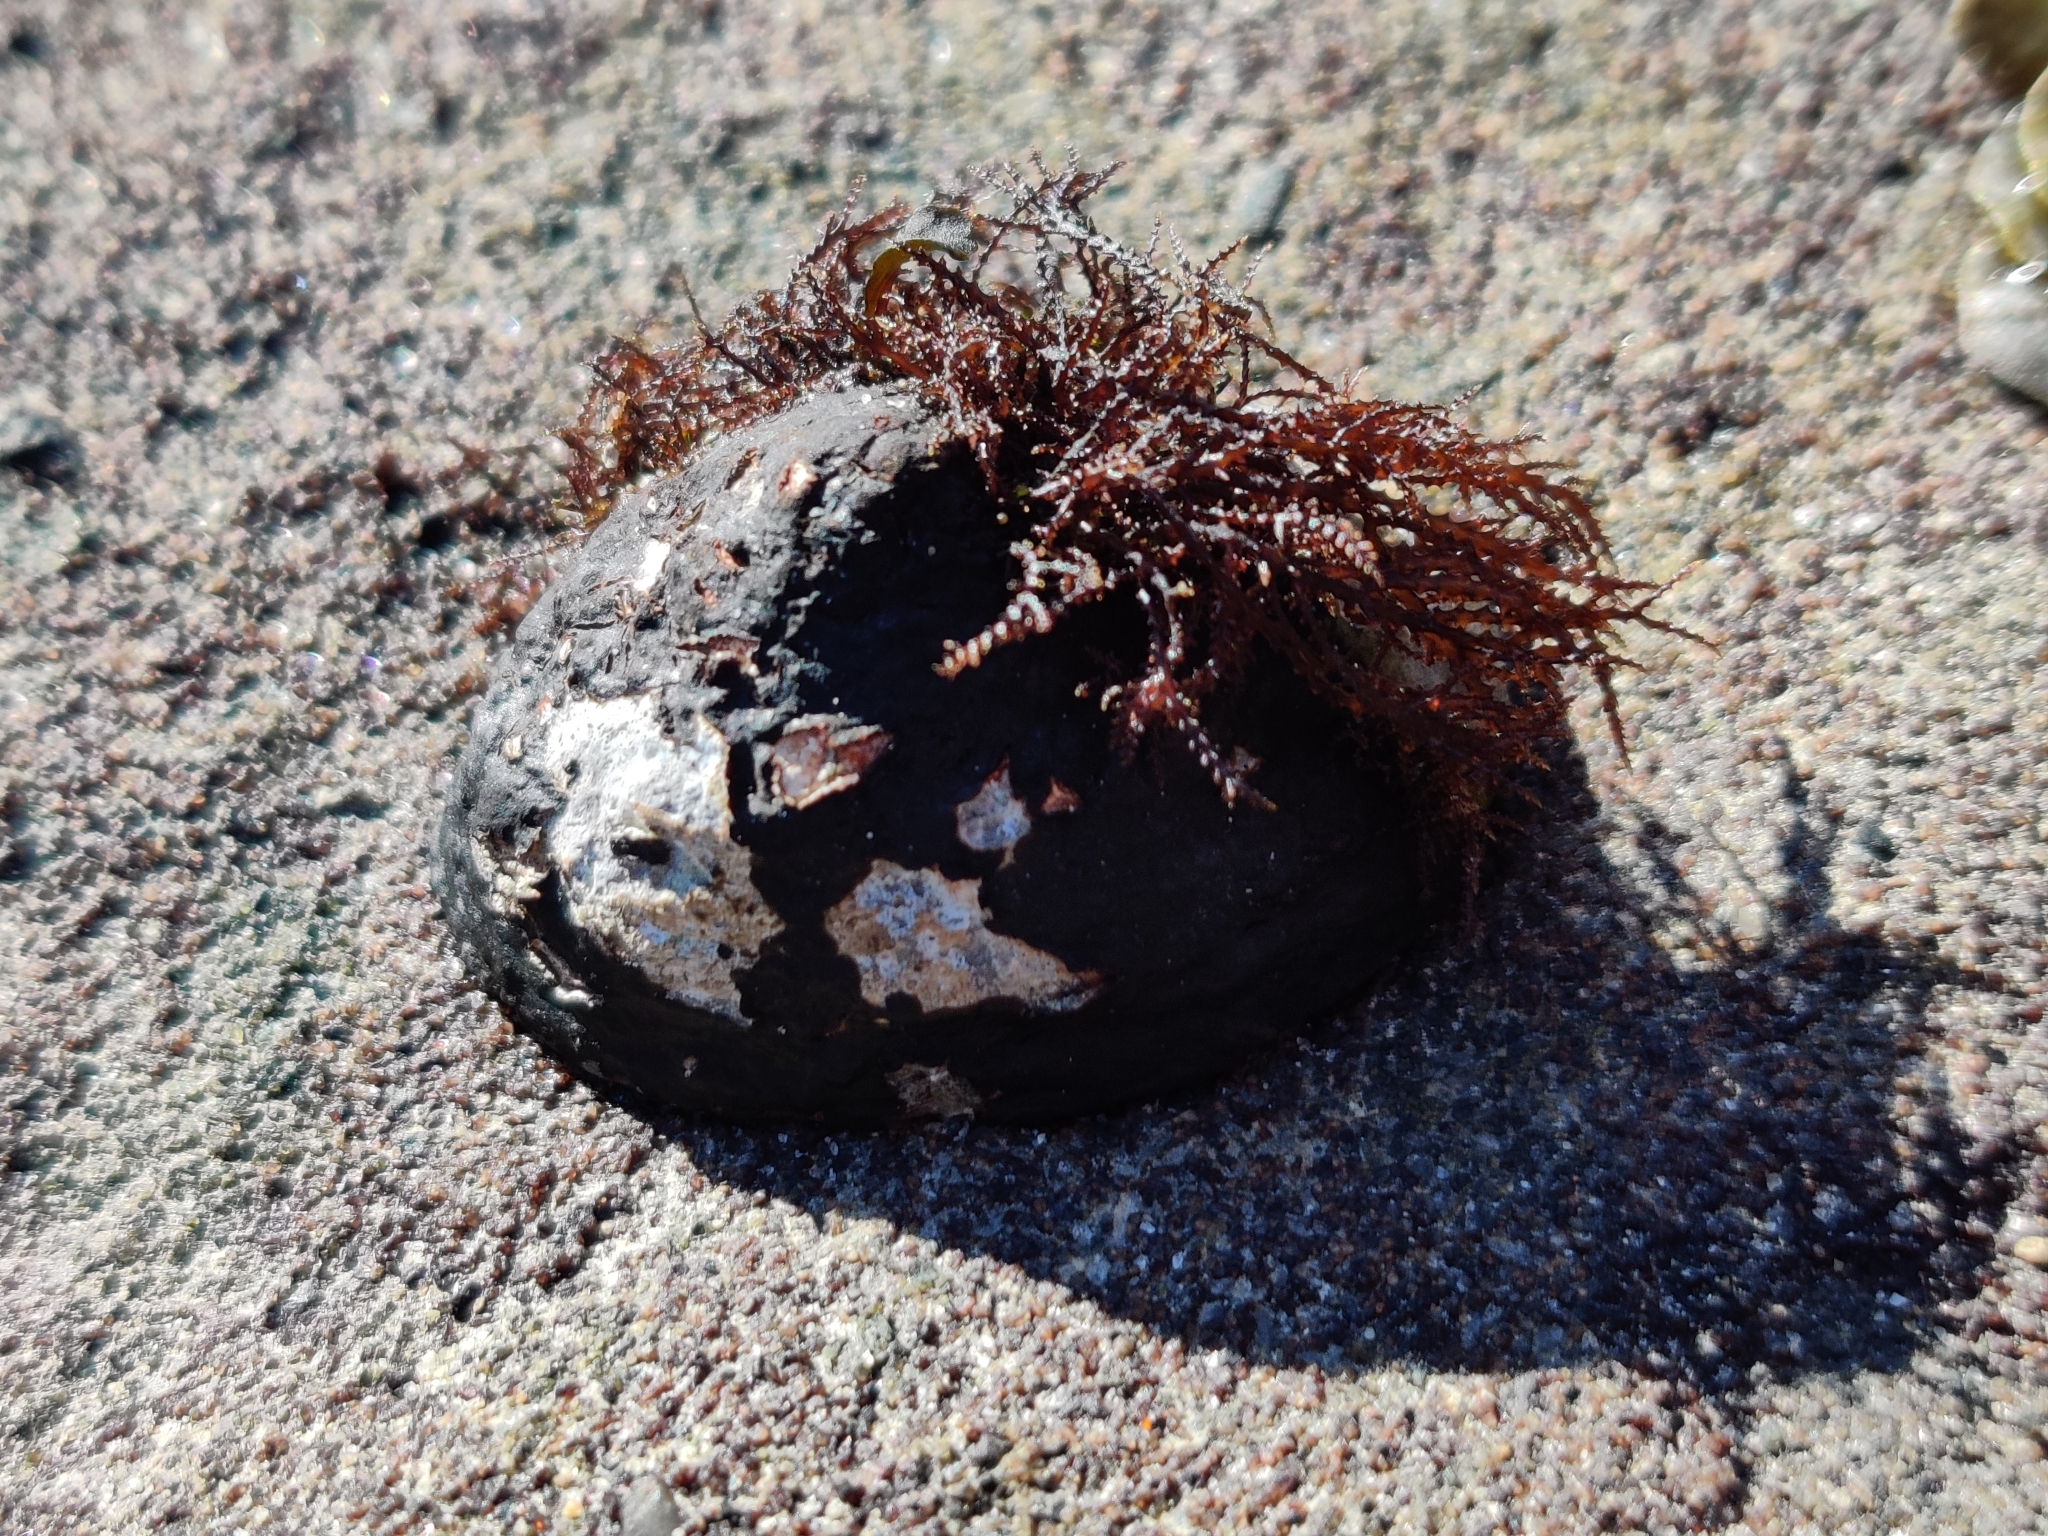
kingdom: Plantae
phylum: Rhodophyta
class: Florideophyceae
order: Gigartinales
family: Endocladiaceae
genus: Endocladia
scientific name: Endocladia muricata
